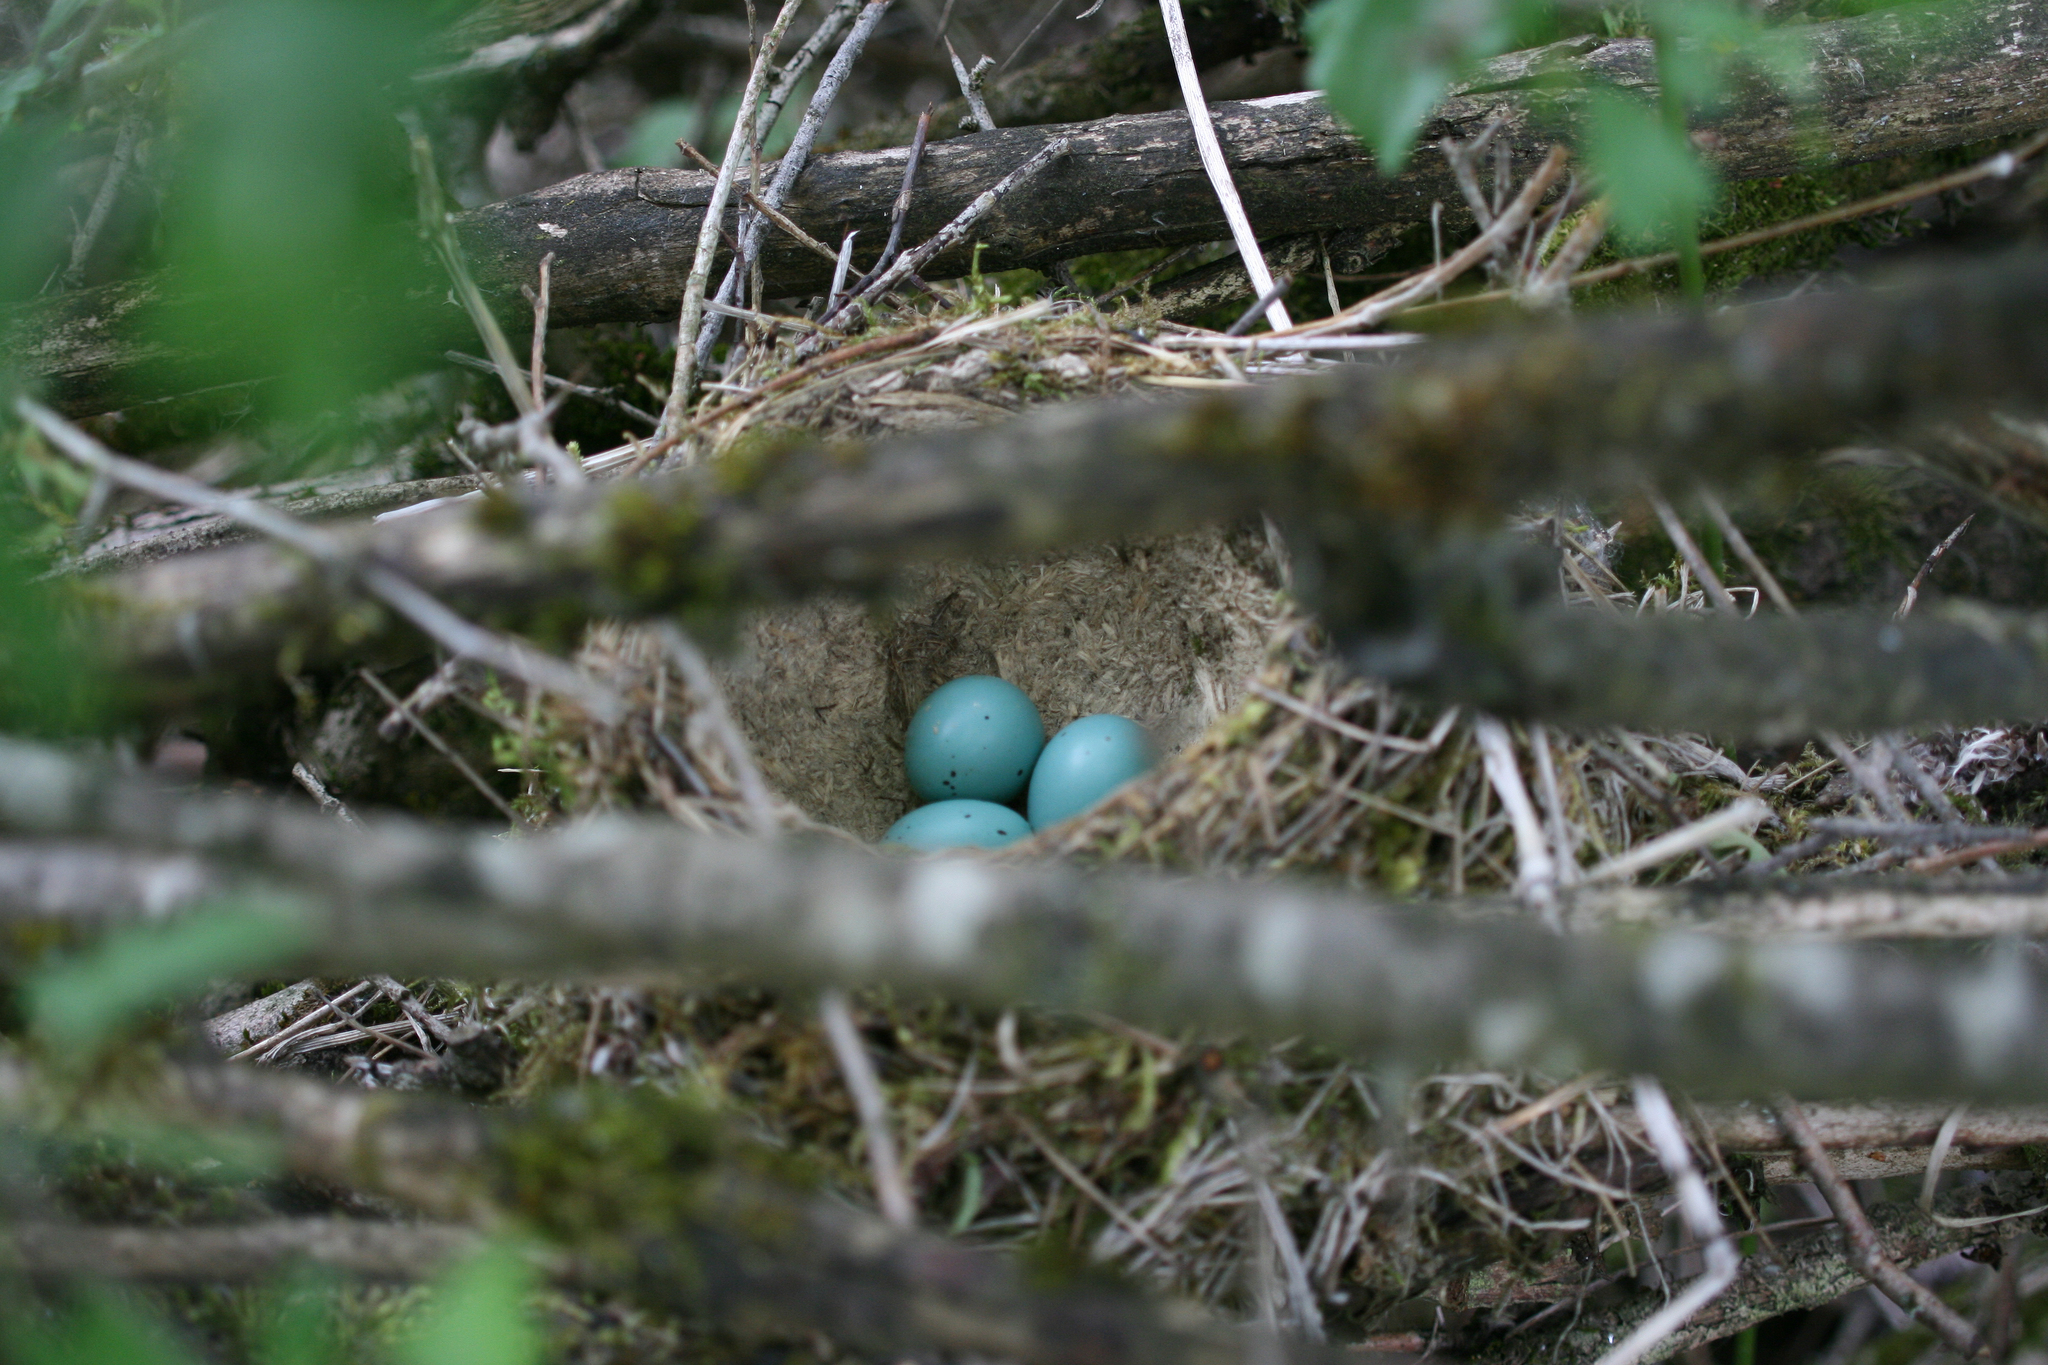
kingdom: Animalia
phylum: Chordata
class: Aves
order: Passeriformes
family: Turdidae
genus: Turdus
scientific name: Turdus philomelos
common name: Song thrush
